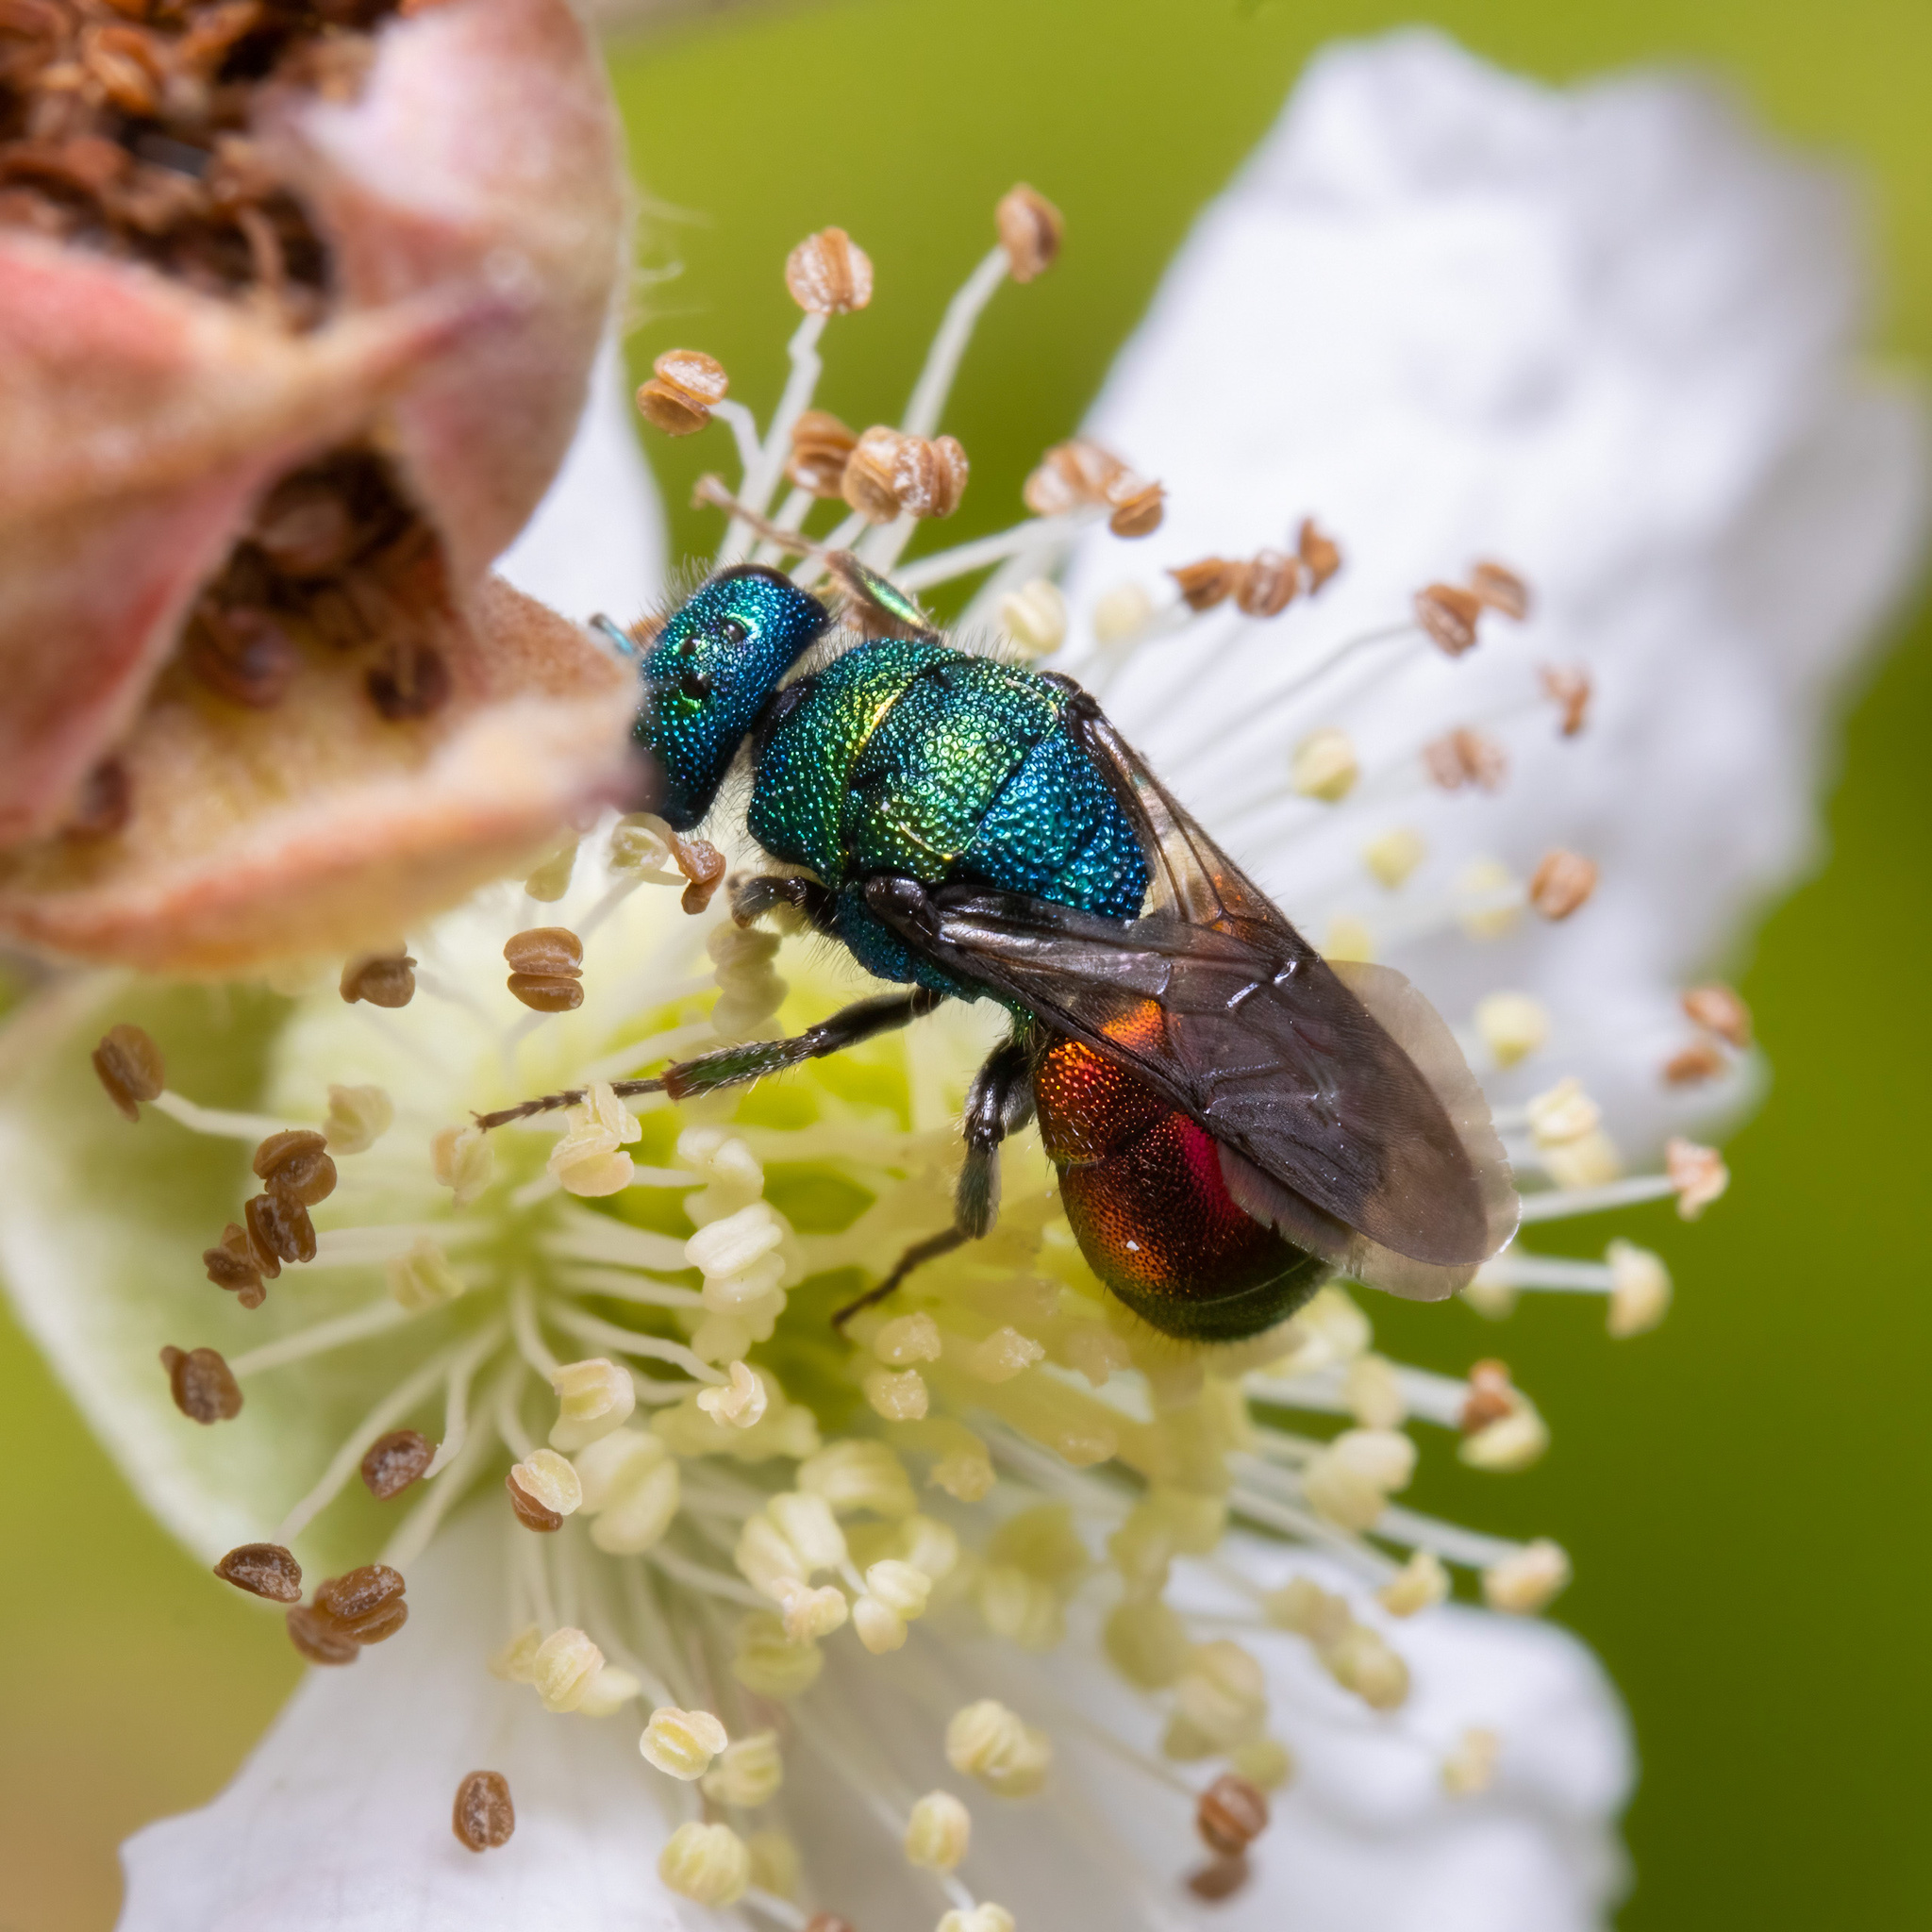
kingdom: Animalia
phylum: Arthropoda
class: Insecta
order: Hymenoptera
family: Chrysididae
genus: Hedychrum
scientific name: Hedychrum
